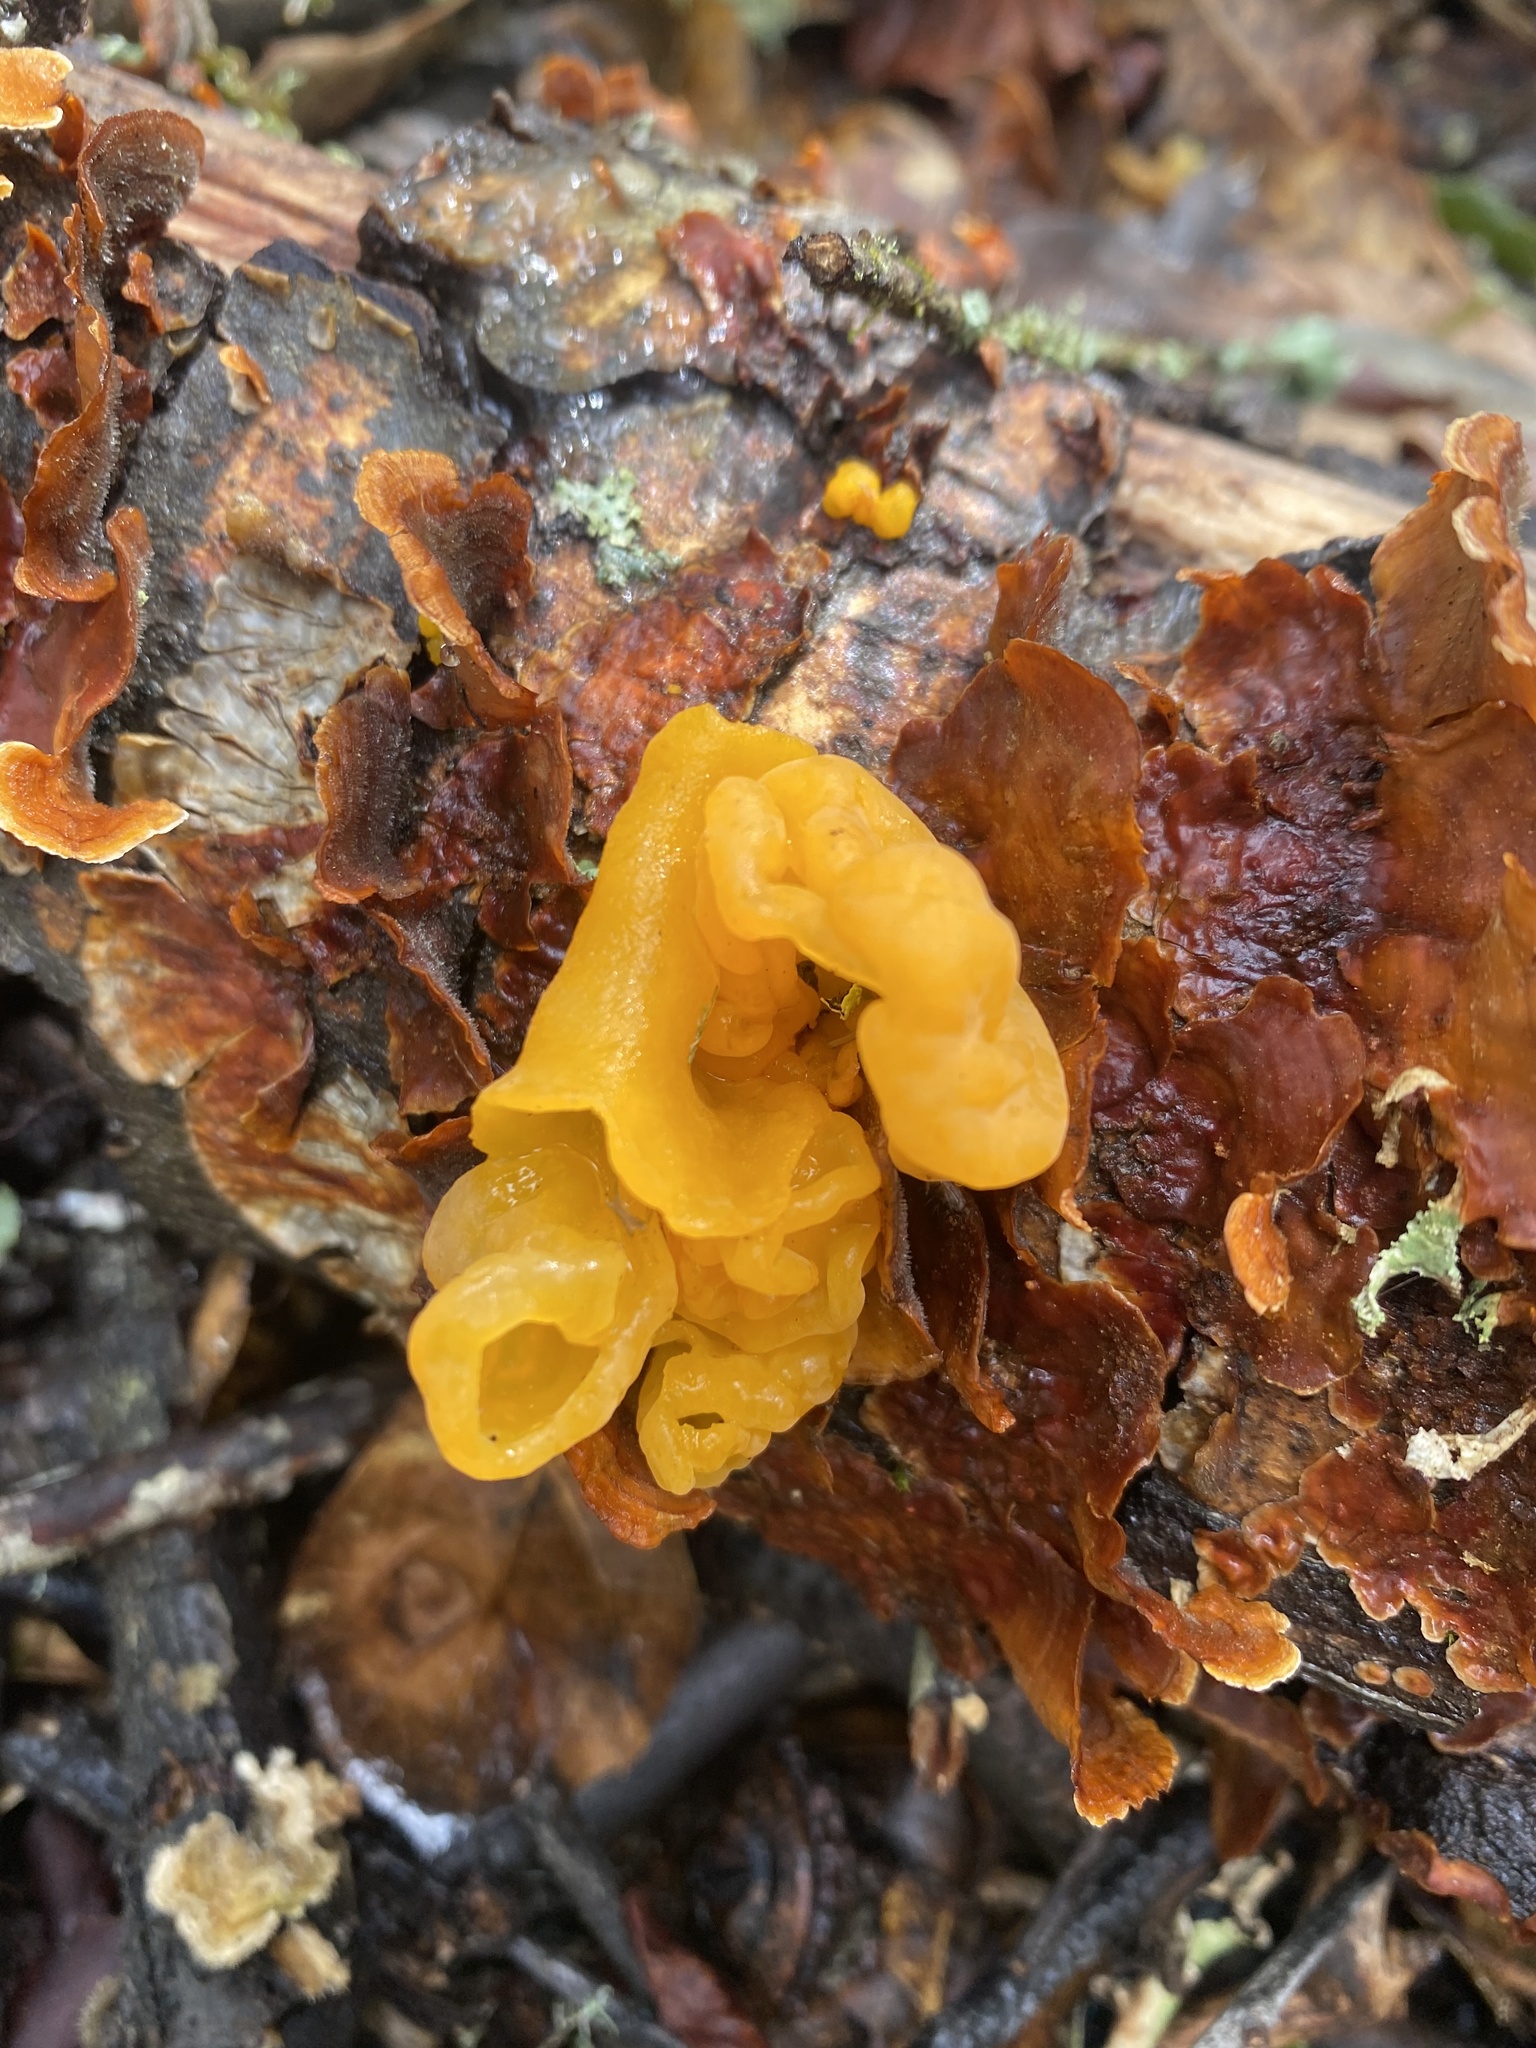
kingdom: Fungi
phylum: Basidiomycota
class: Tremellomycetes
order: Tremellales
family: Naemateliaceae
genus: Naematelia
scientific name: Naematelia aurantia
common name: Golden ear
